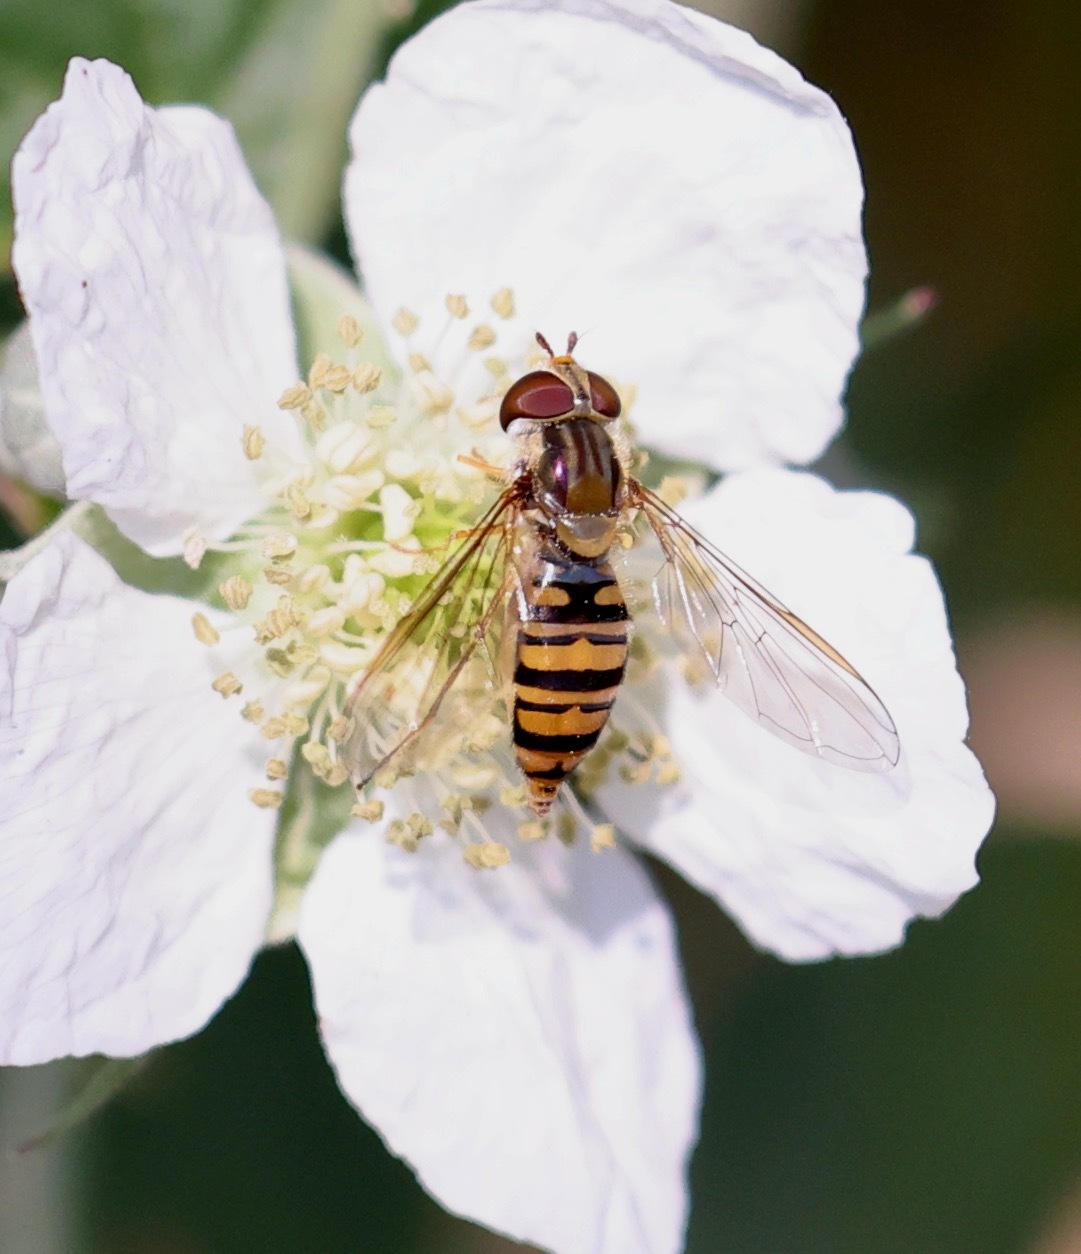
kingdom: Animalia
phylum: Arthropoda
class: Insecta
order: Diptera
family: Syrphidae
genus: Episyrphus
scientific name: Episyrphus balteatus
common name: Marmalade hoverfly
